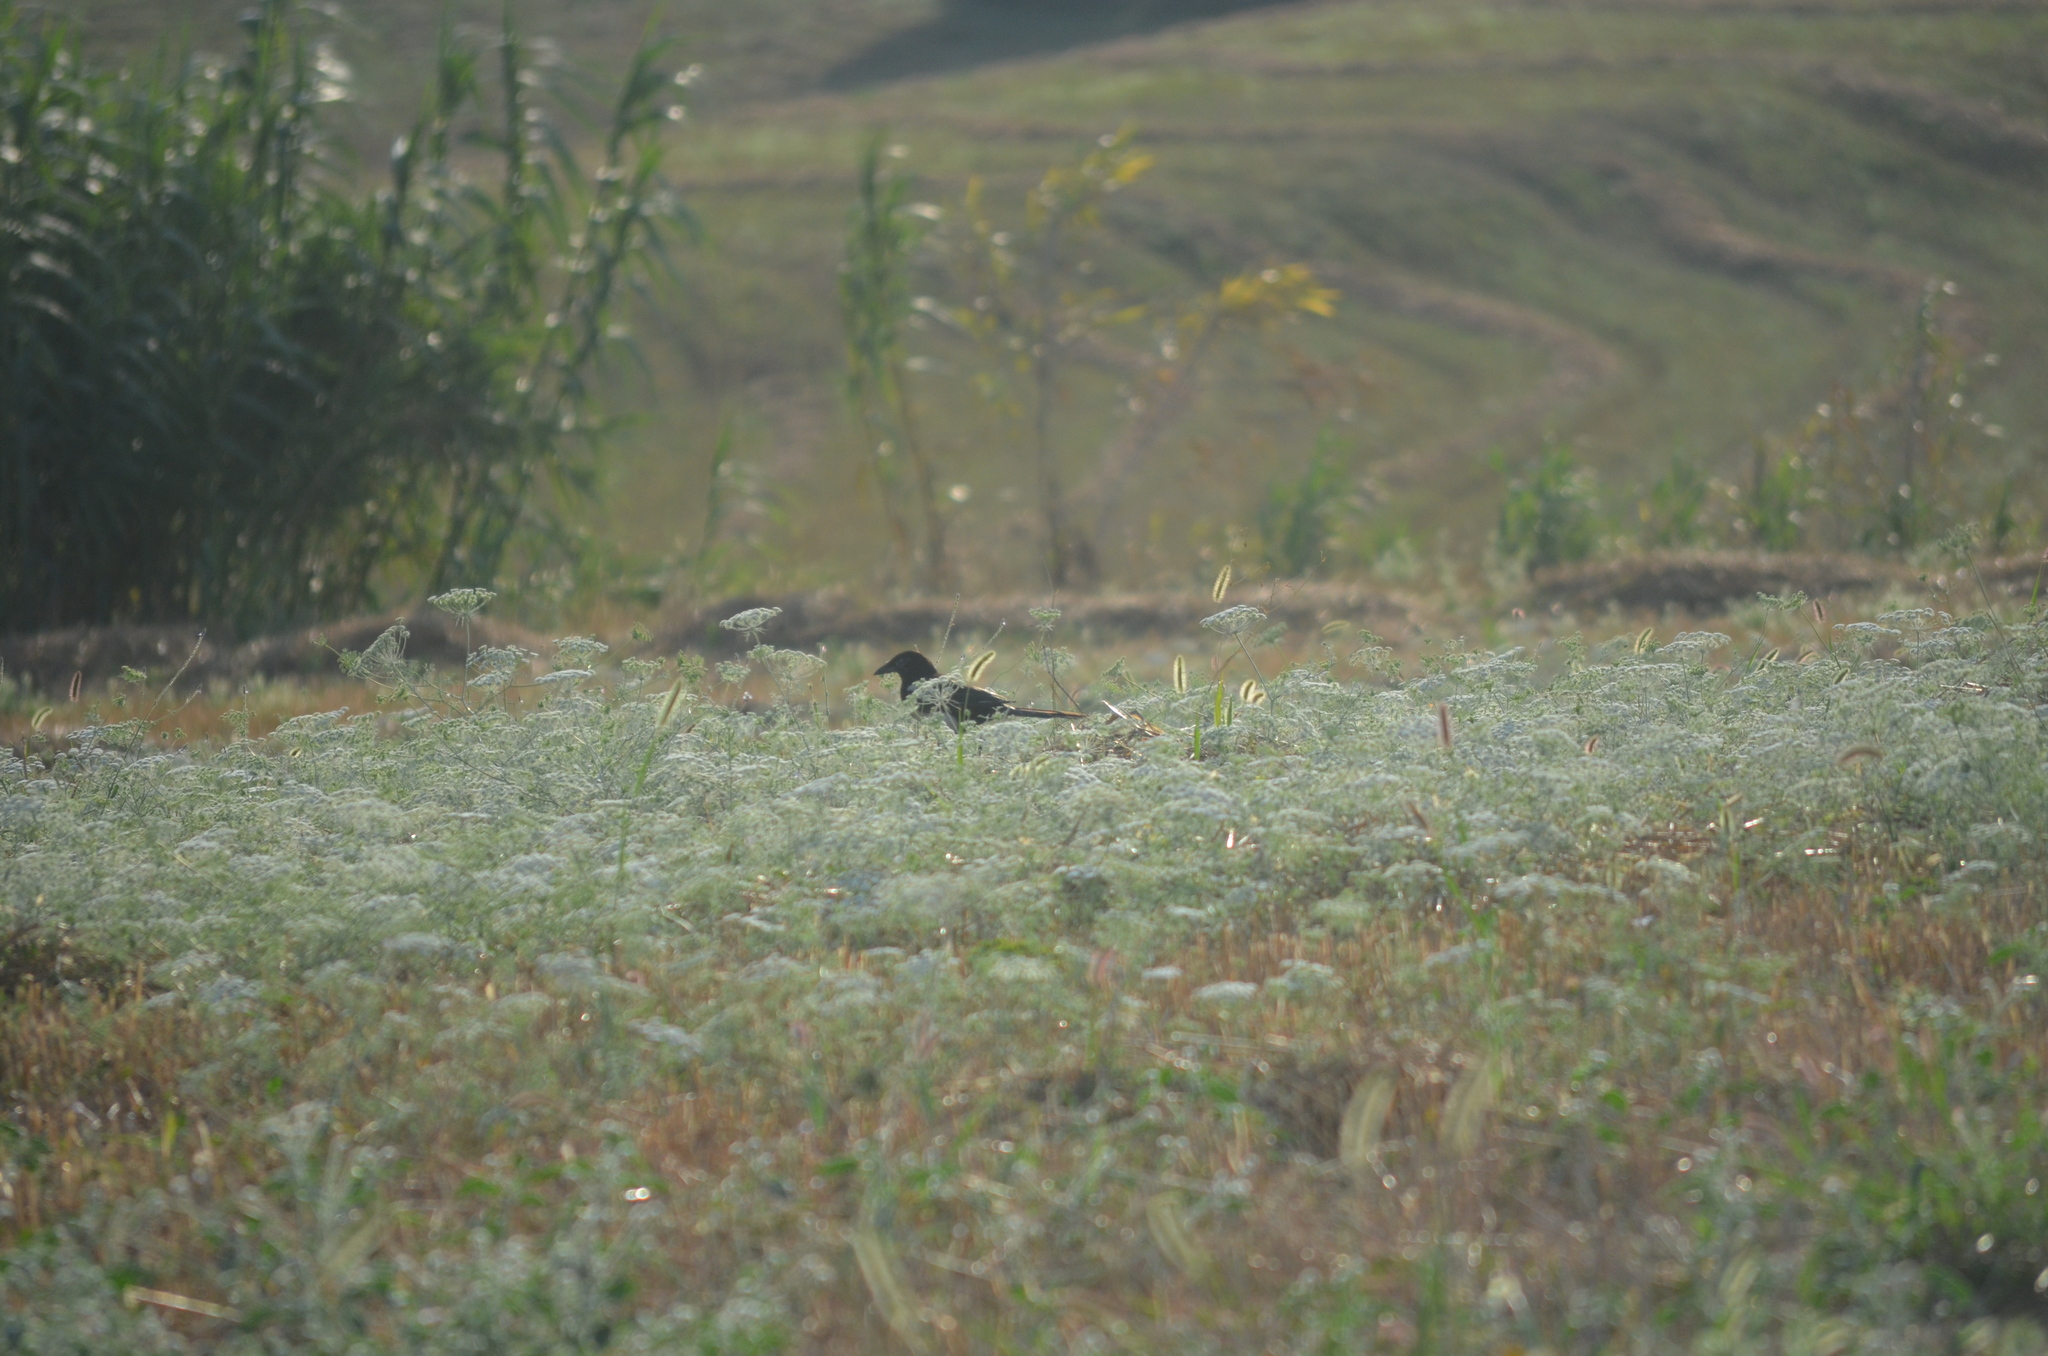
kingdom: Animalia
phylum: Chordata
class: Aves
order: Passeriformes
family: Corvidae
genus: Pica
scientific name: Pica pica
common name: Eurasian magpie
